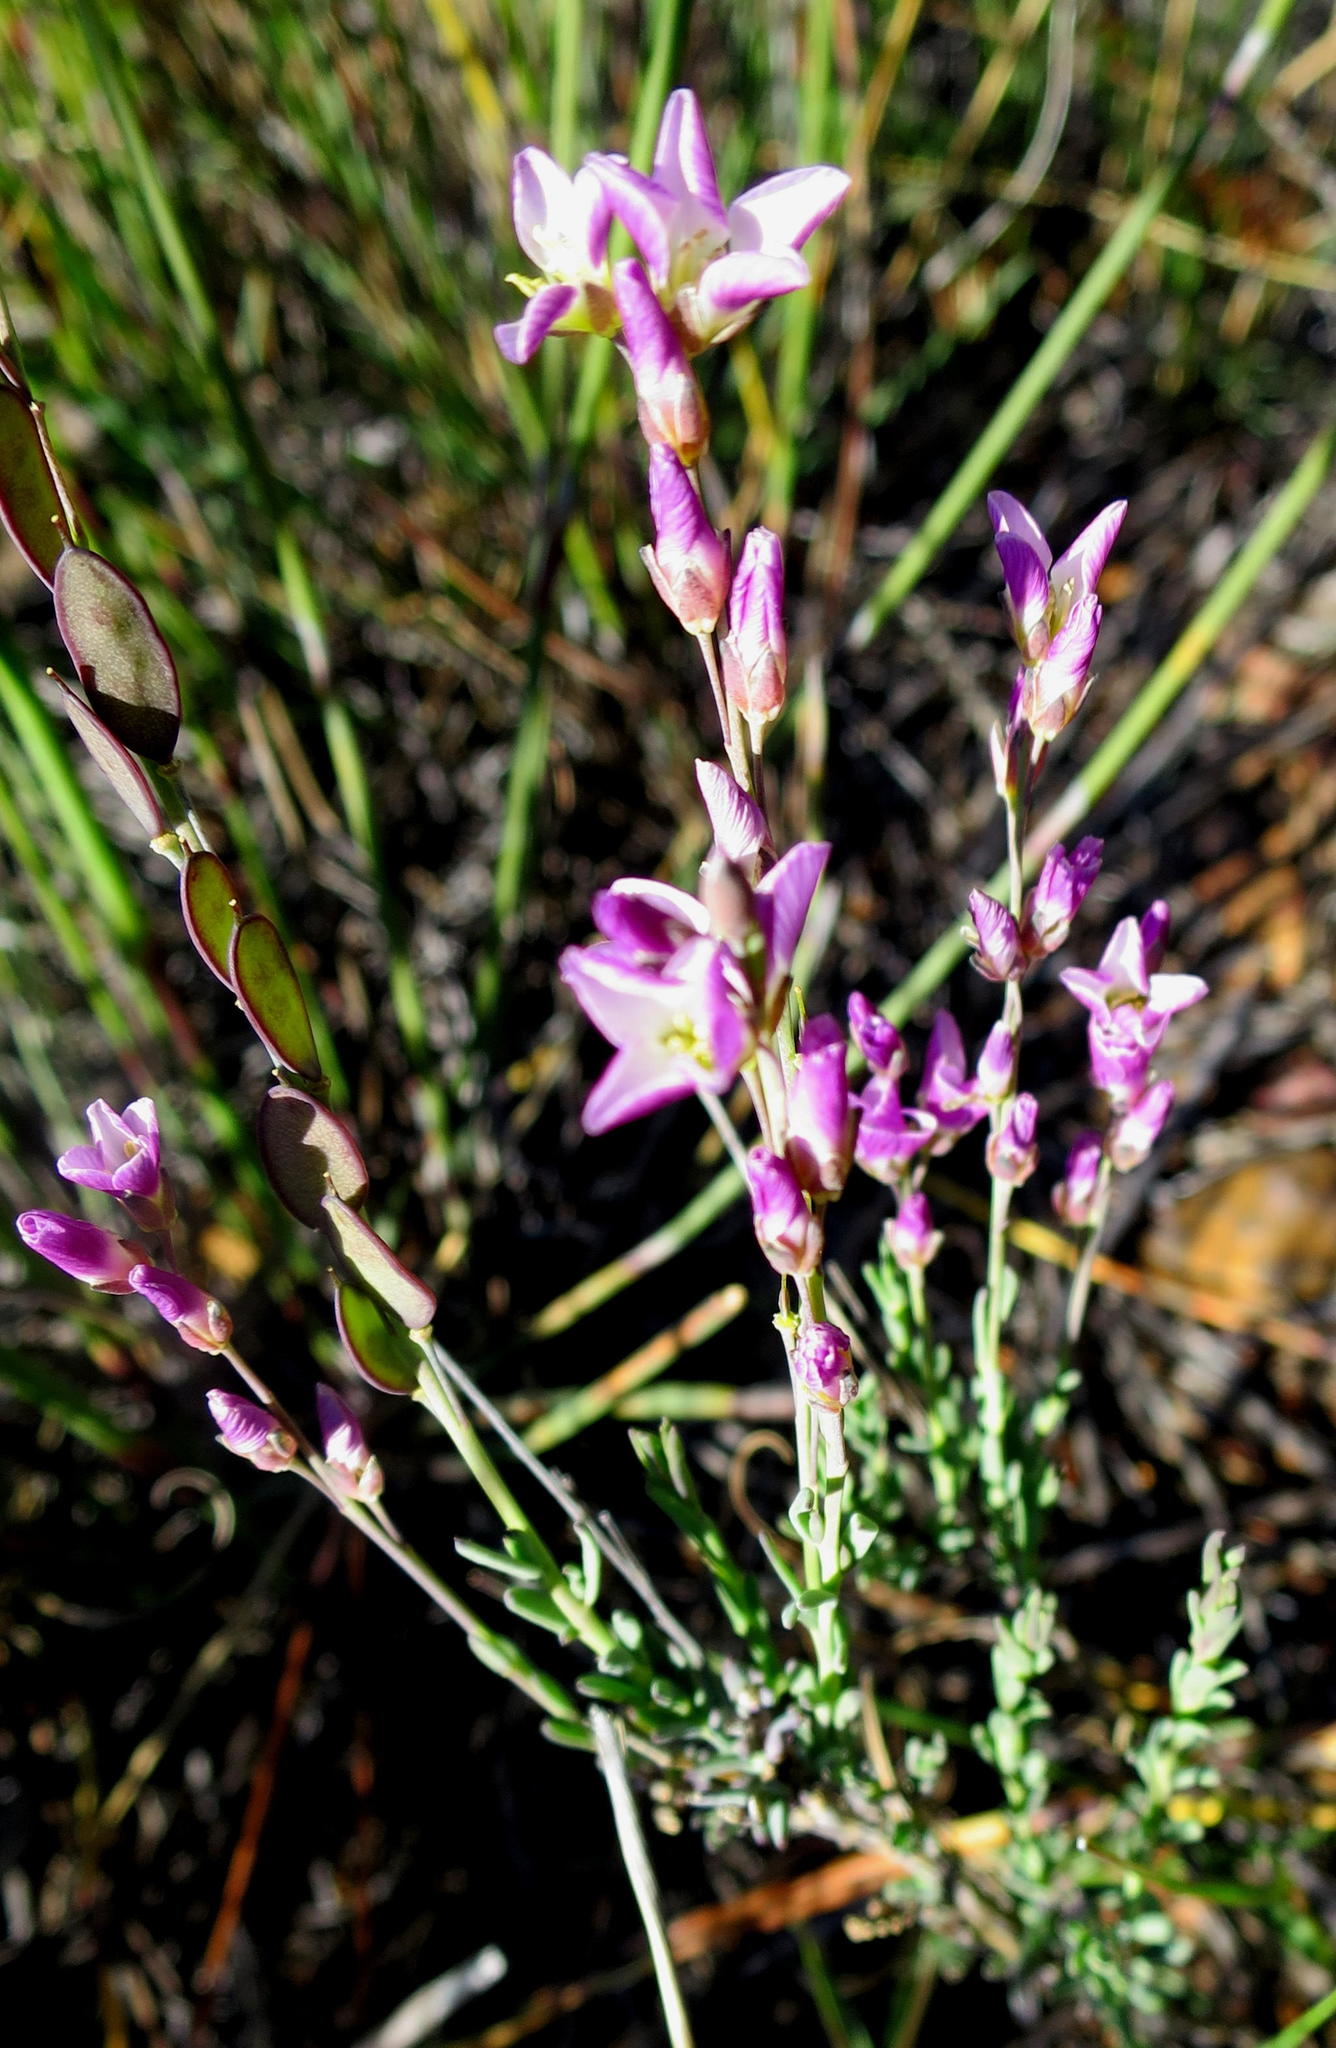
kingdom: Plantae
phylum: Tracheophyta
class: Magnoliopsida
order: Brassicales
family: Brassicaceae
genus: Heliophila
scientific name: Heliophila glauca
